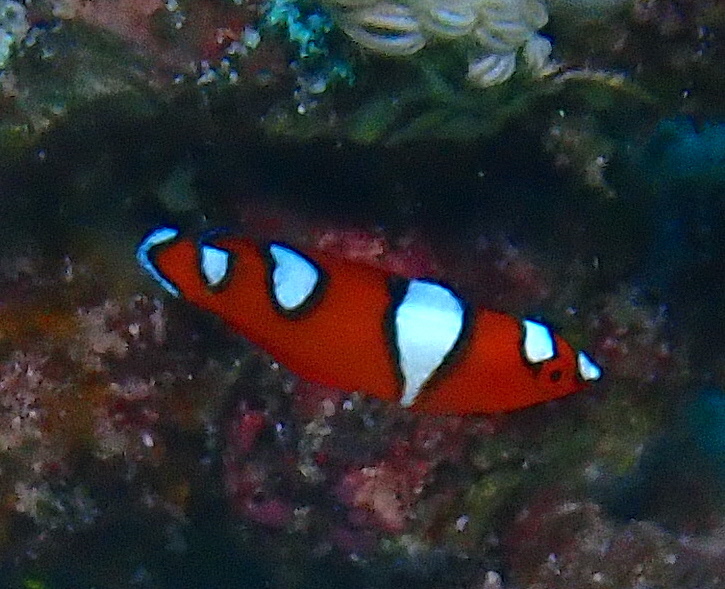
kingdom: Animalia
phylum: Chordata
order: Perciformes
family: Labridae
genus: Coris
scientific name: Coris gaimard
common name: Yellowtail coris
